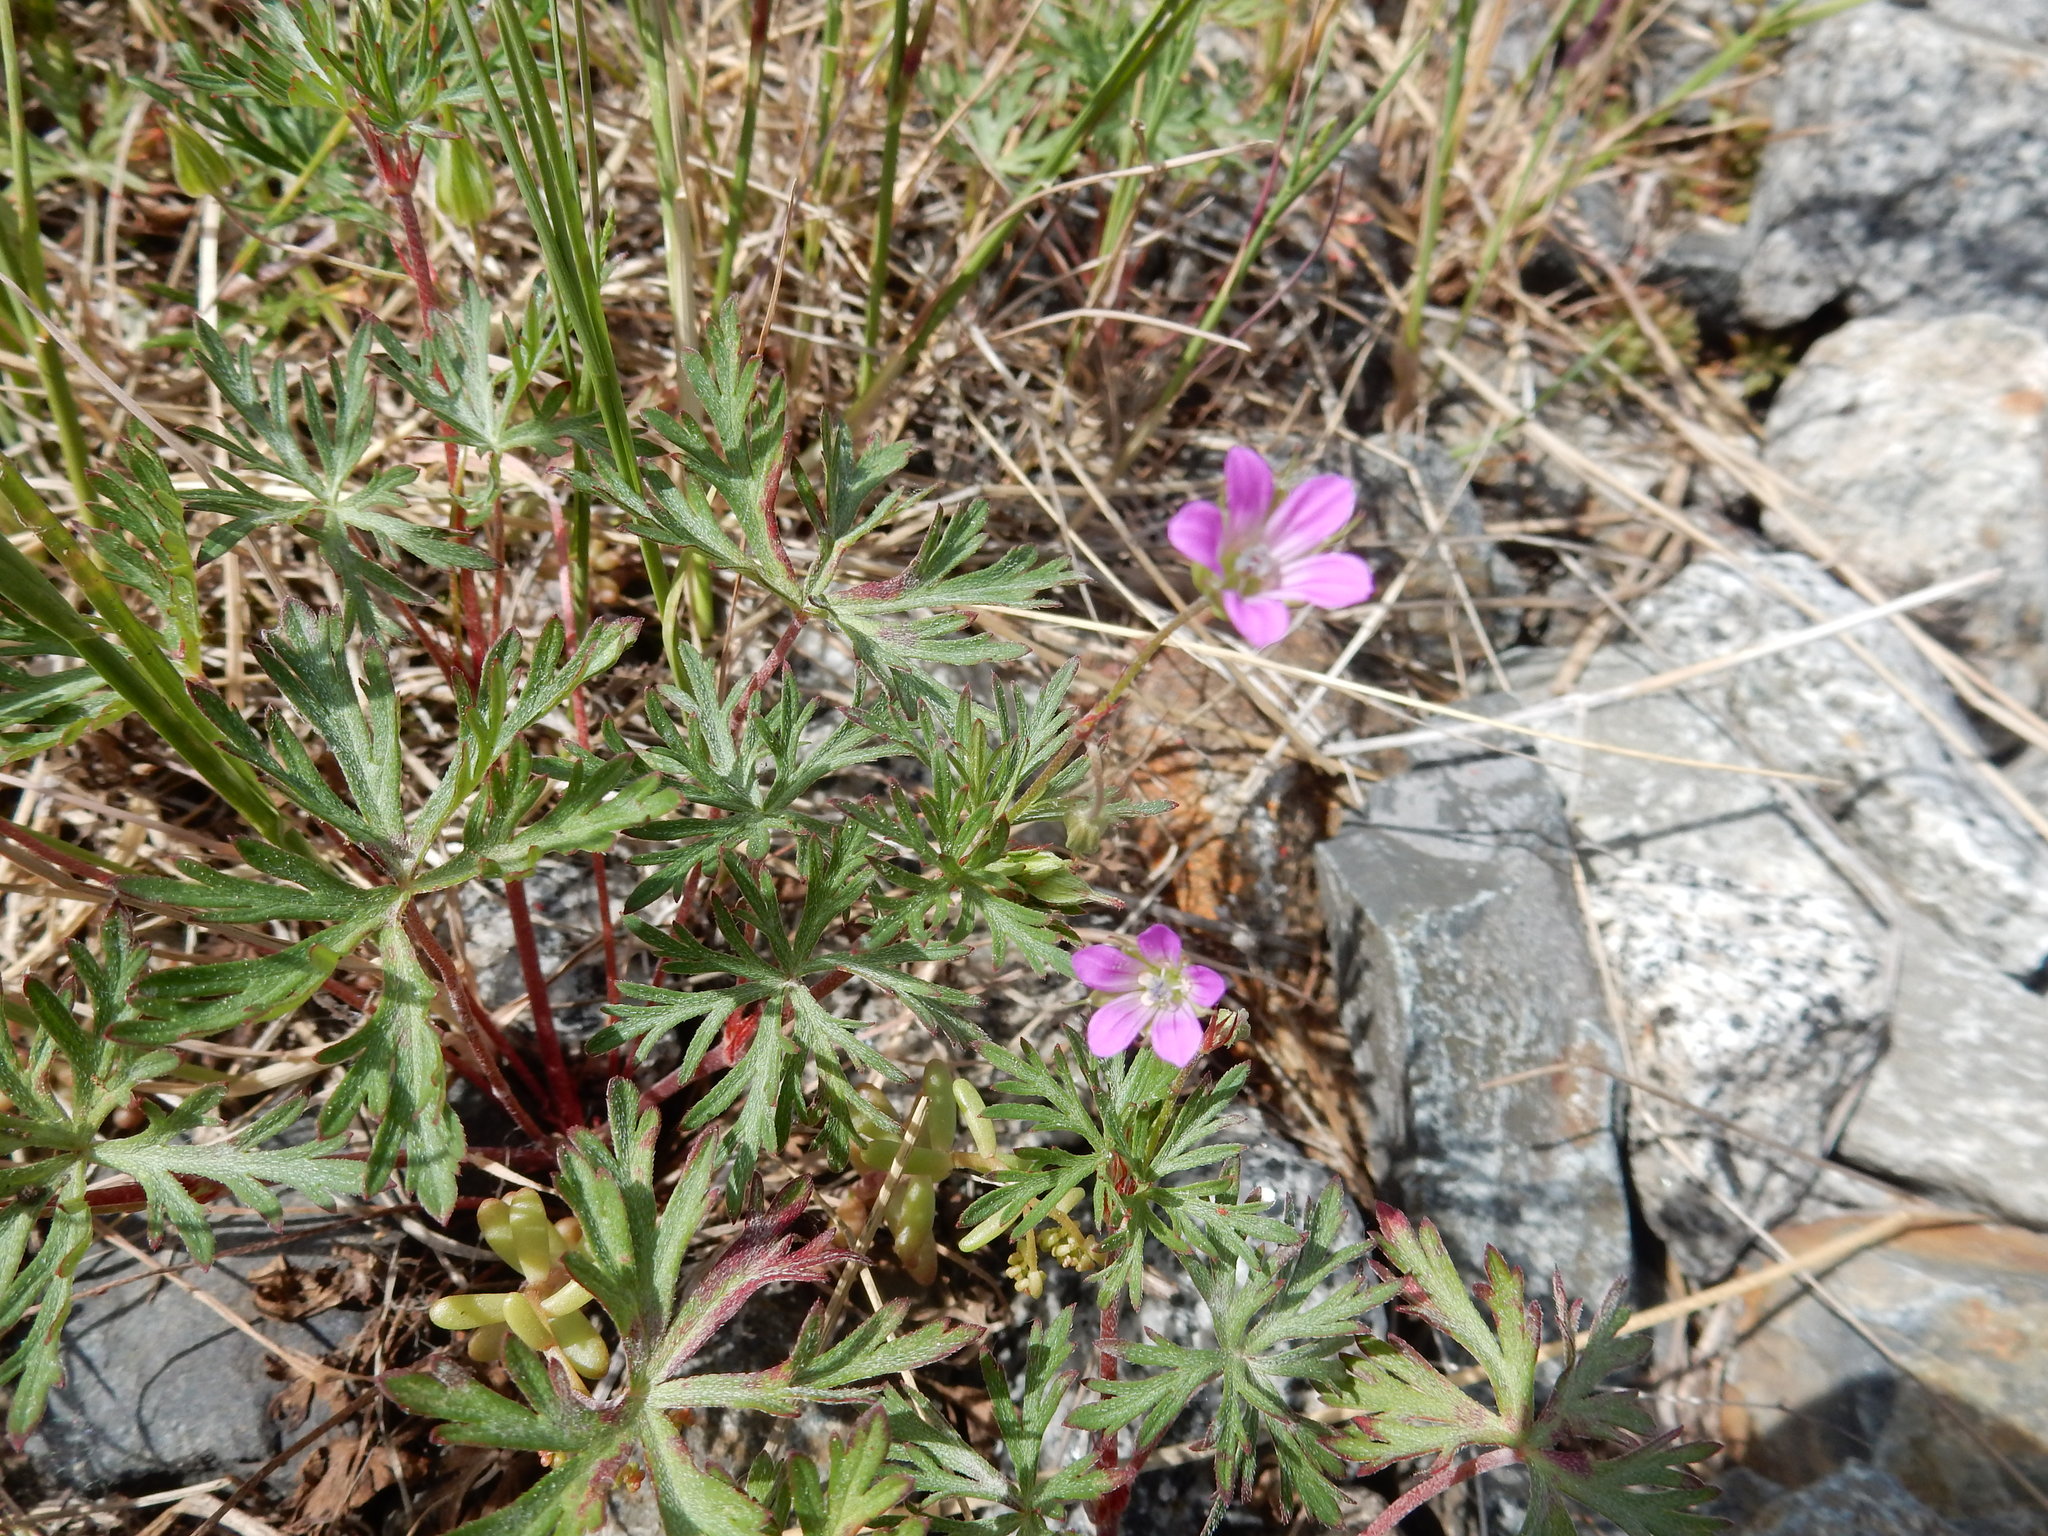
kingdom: Plantae
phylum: Tracheophyta
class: Magnoliopsida
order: Geraniales
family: Geraniaceae
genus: Geranium
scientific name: Geranium columbinum
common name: Long-stalked crane's-bill
